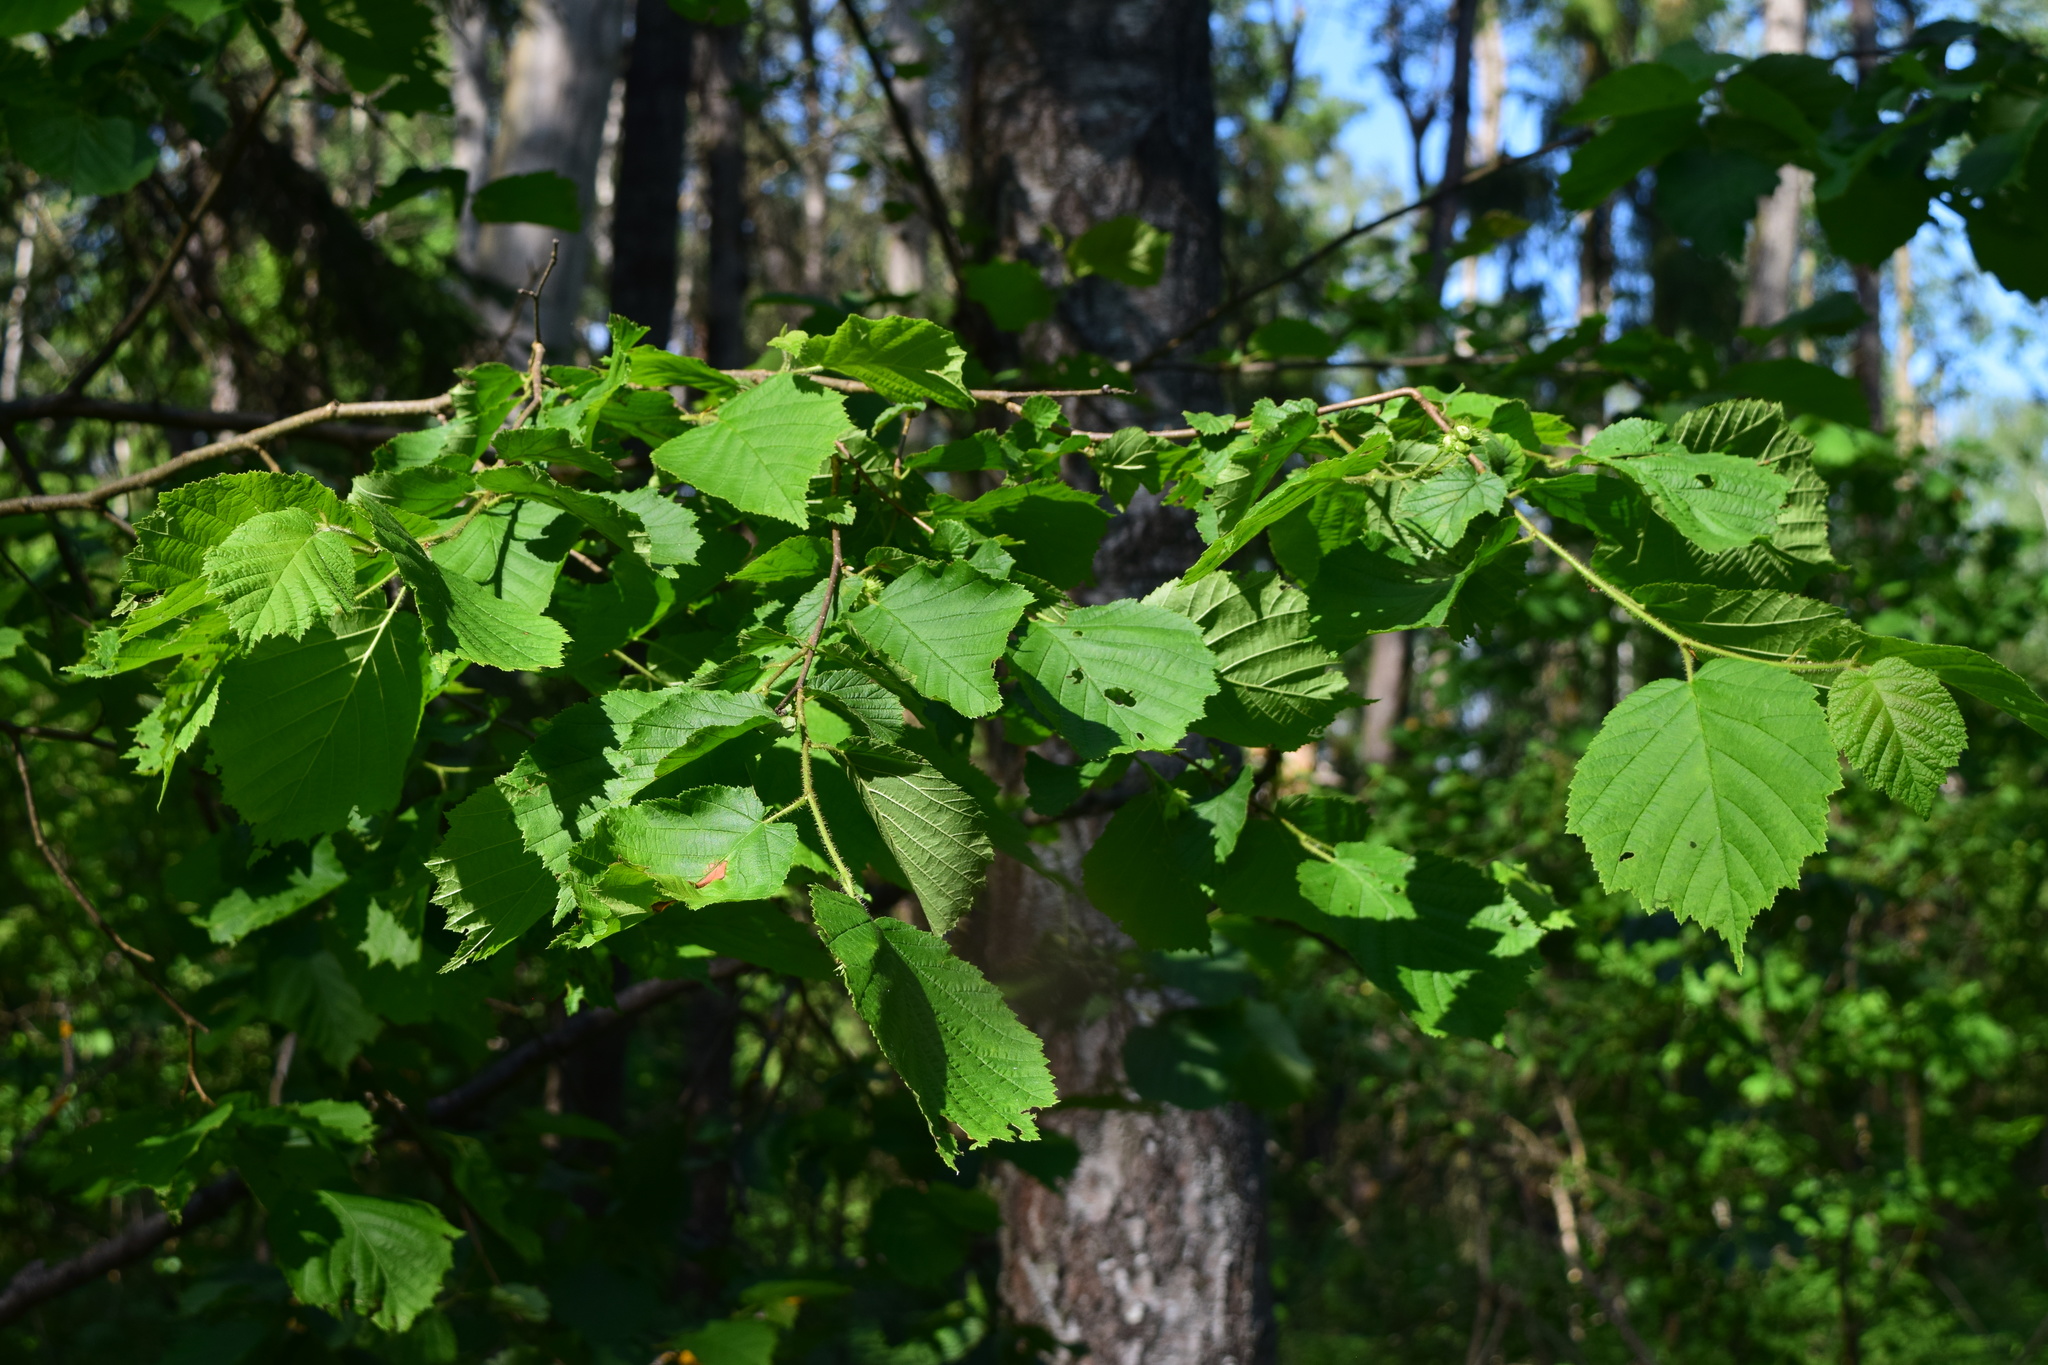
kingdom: Plantae
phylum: Tracheophyta
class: Magnoliopsida
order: Fagales
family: Betulaceae
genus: Corylus
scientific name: Corylus avellana
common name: European hazel
